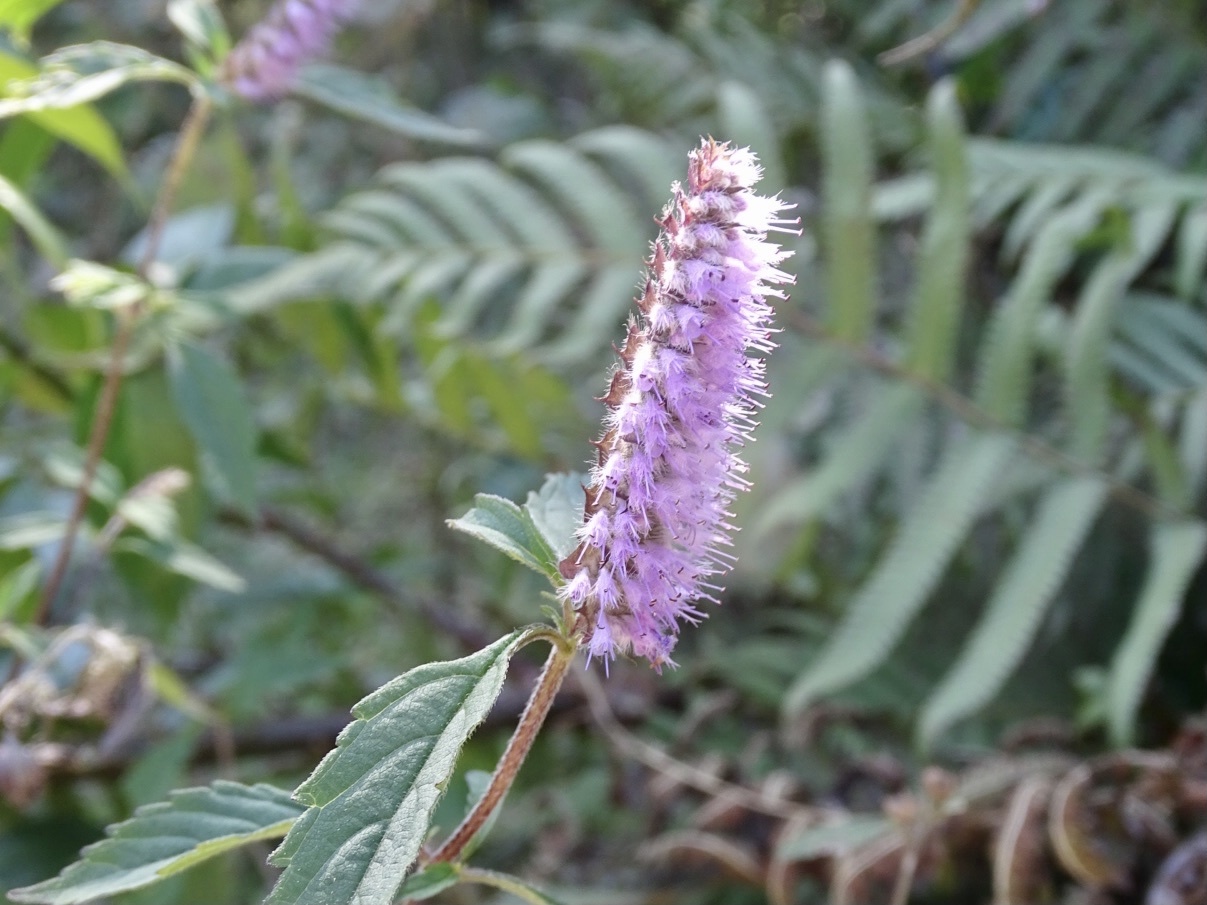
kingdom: Plantae
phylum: Tracheophyta
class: Magnoliopsida
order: Lamiales
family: Lamiaceae
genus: Elsholtzia
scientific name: Elsholtzia argyi
